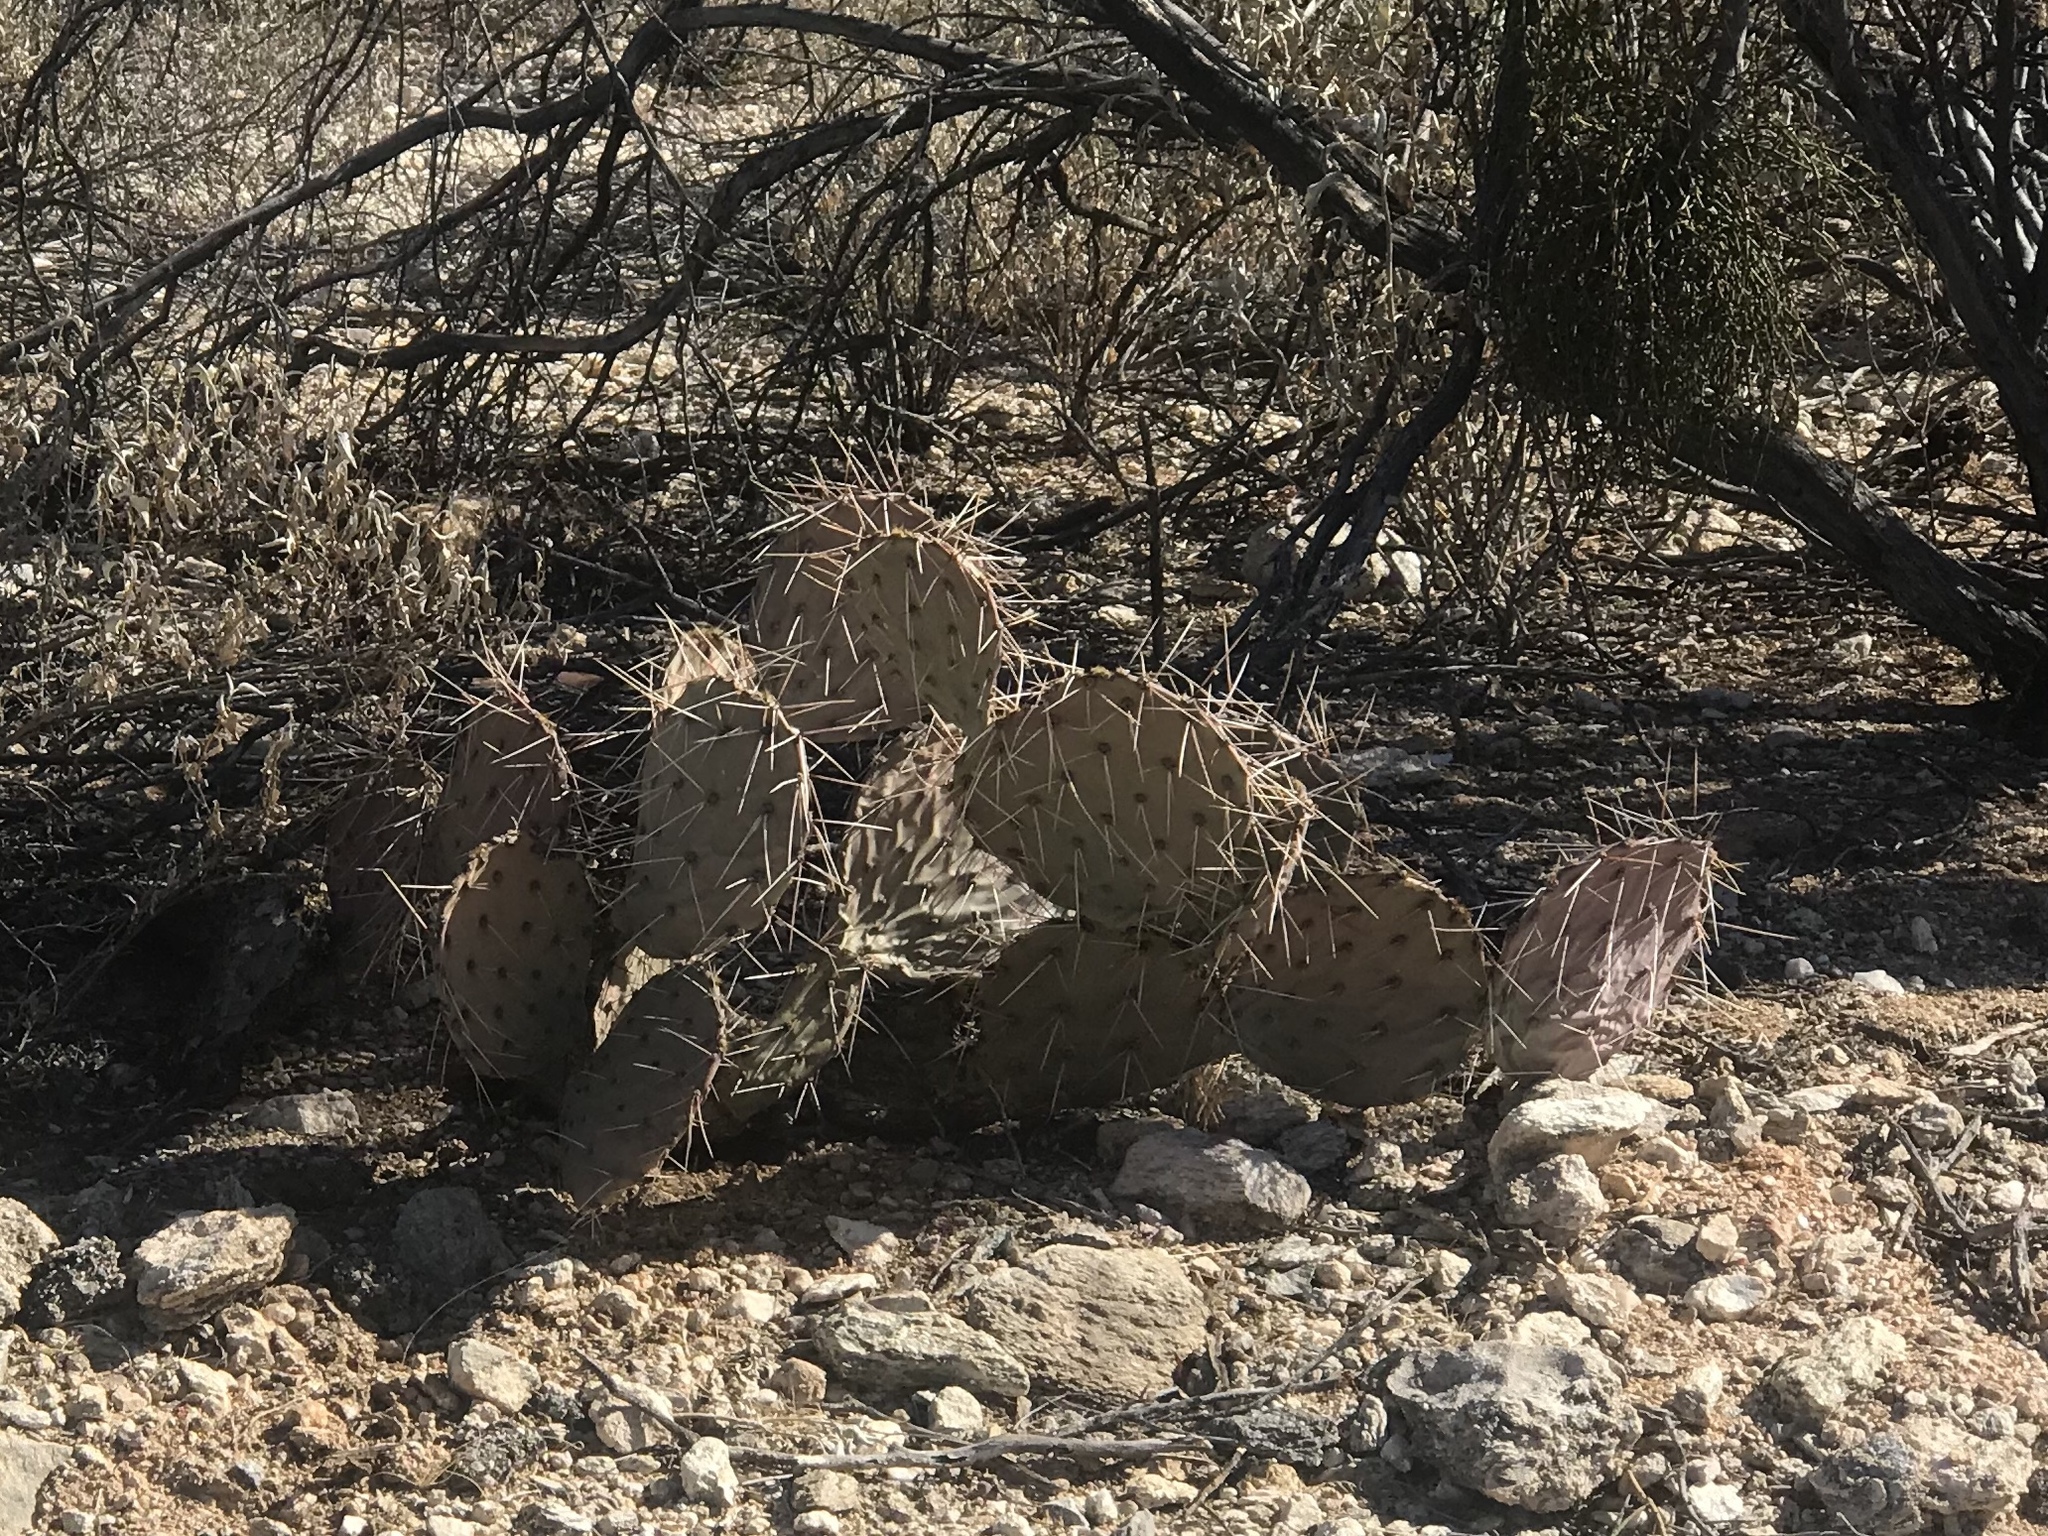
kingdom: Plantae
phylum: Tracheophyta
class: Magnoliopsida
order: Caryophyllales
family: Cactaceae
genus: Opuntia
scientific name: Opuntia phaeacantha
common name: New mexico prickly-pear
